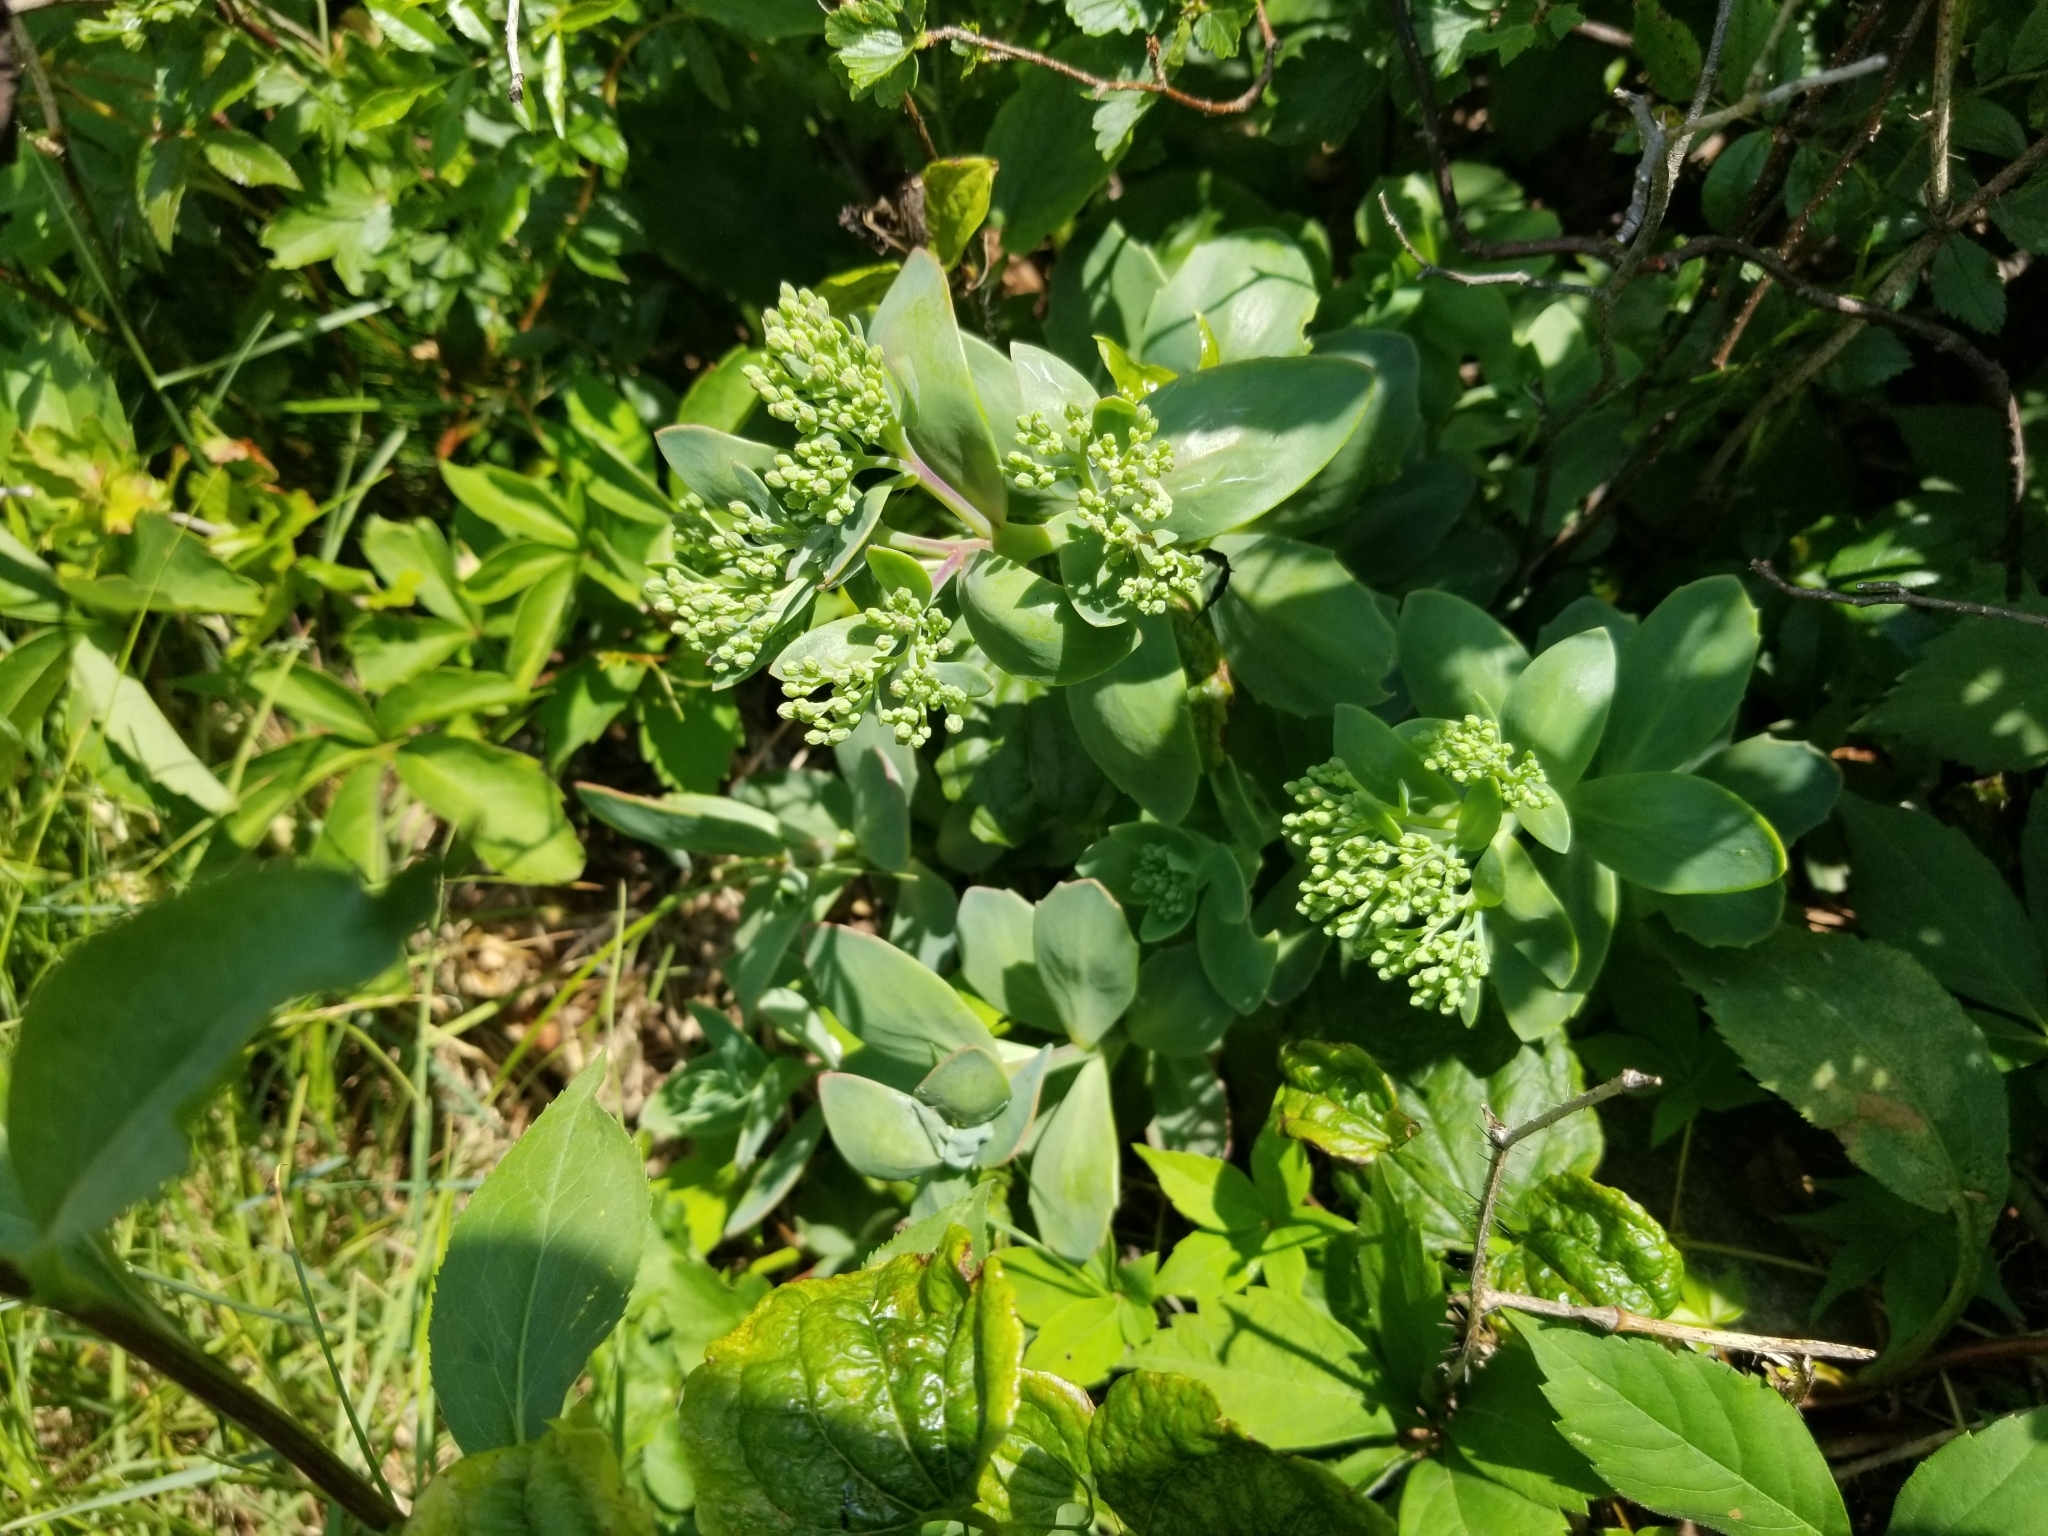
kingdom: Plantae
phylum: Tracheophyta
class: Magnoliopsida
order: Saxifragales
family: Crassulaceae
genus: Hylotelephium
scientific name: Hylotelephium telephioides
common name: Allegheny stonecrop
